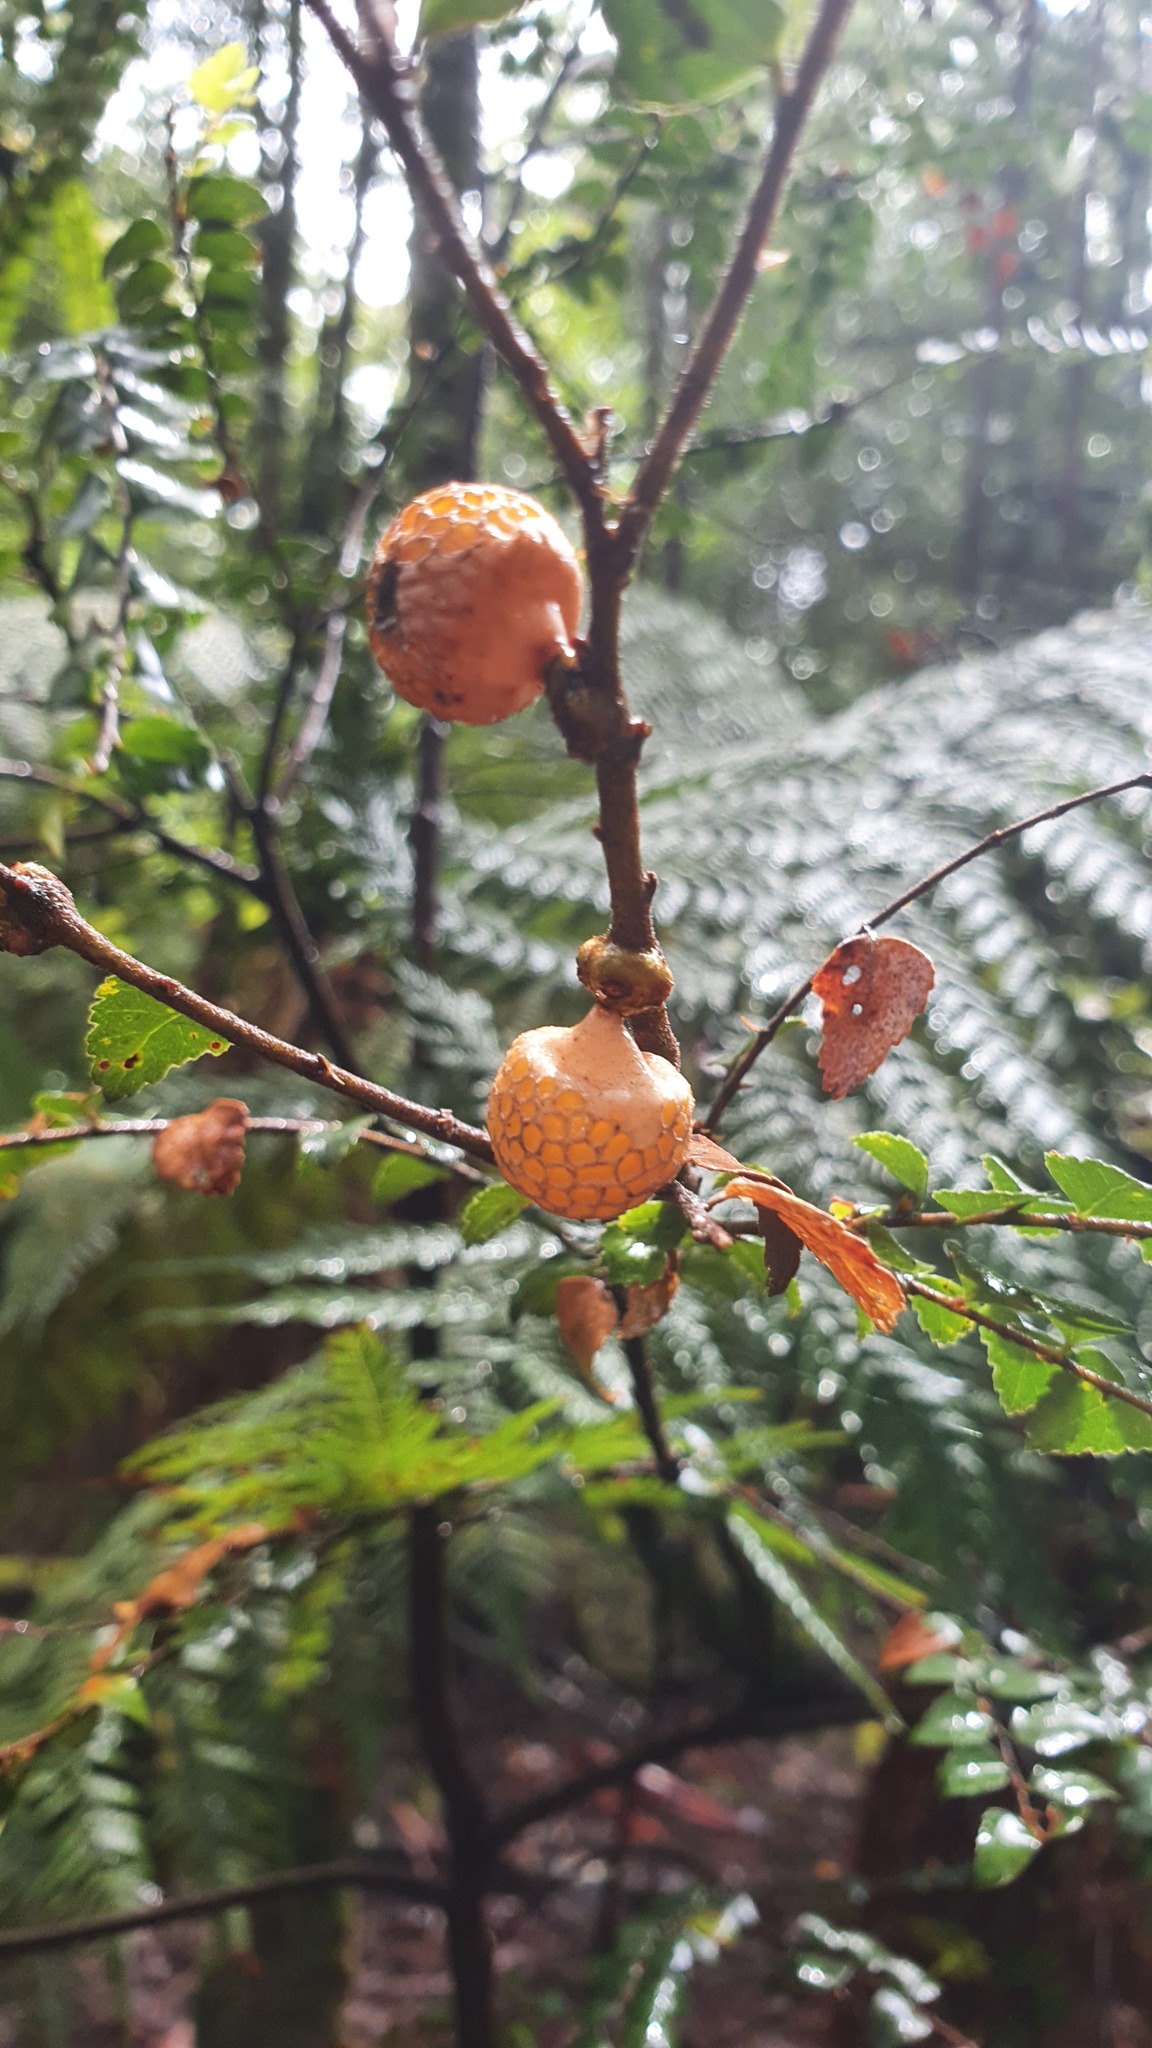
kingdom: Fungi
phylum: Ascomycota
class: Leotiomycetes
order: Cyttariales
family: Cyttariaceae
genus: Cyttaria
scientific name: Cyttaria gunnii
